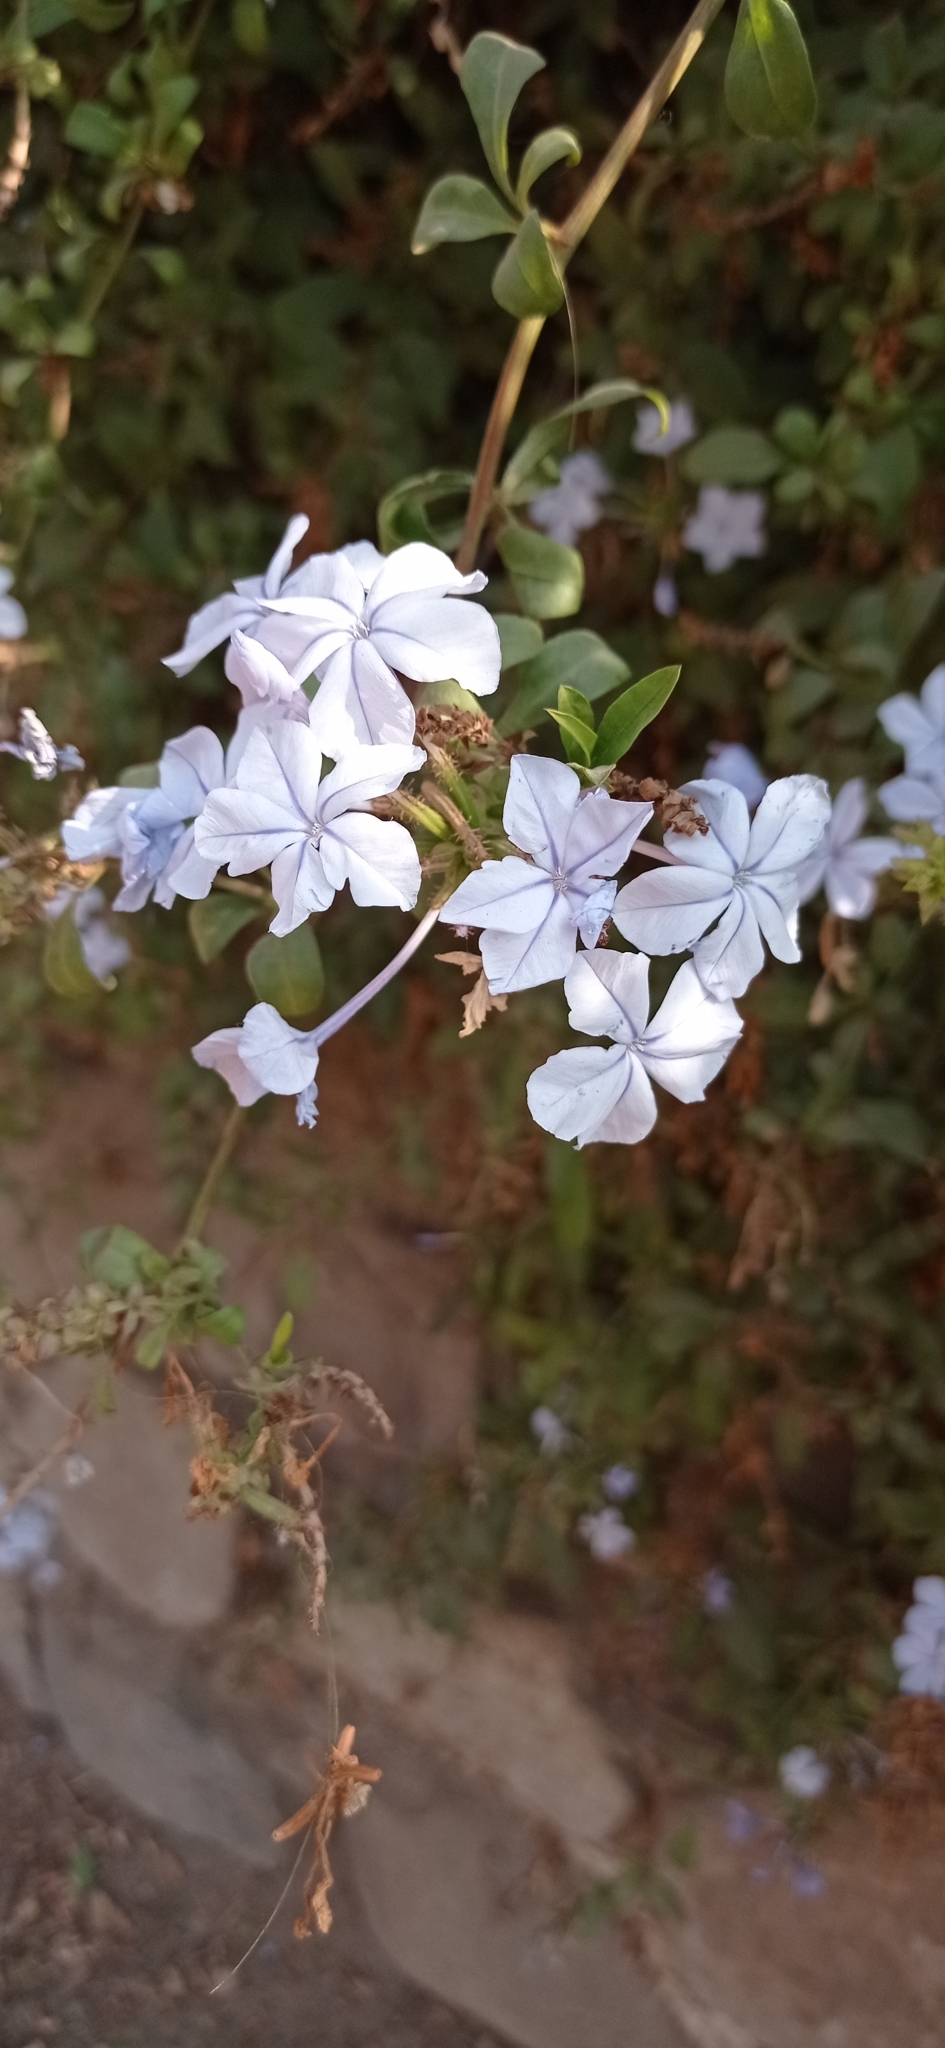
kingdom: Plantae
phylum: Tracheophyta
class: Magnoliopsida
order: Caryophyllales
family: Plumbaginaceae
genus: Plumbago
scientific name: Plumbago auriculata
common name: Cape leadwort
